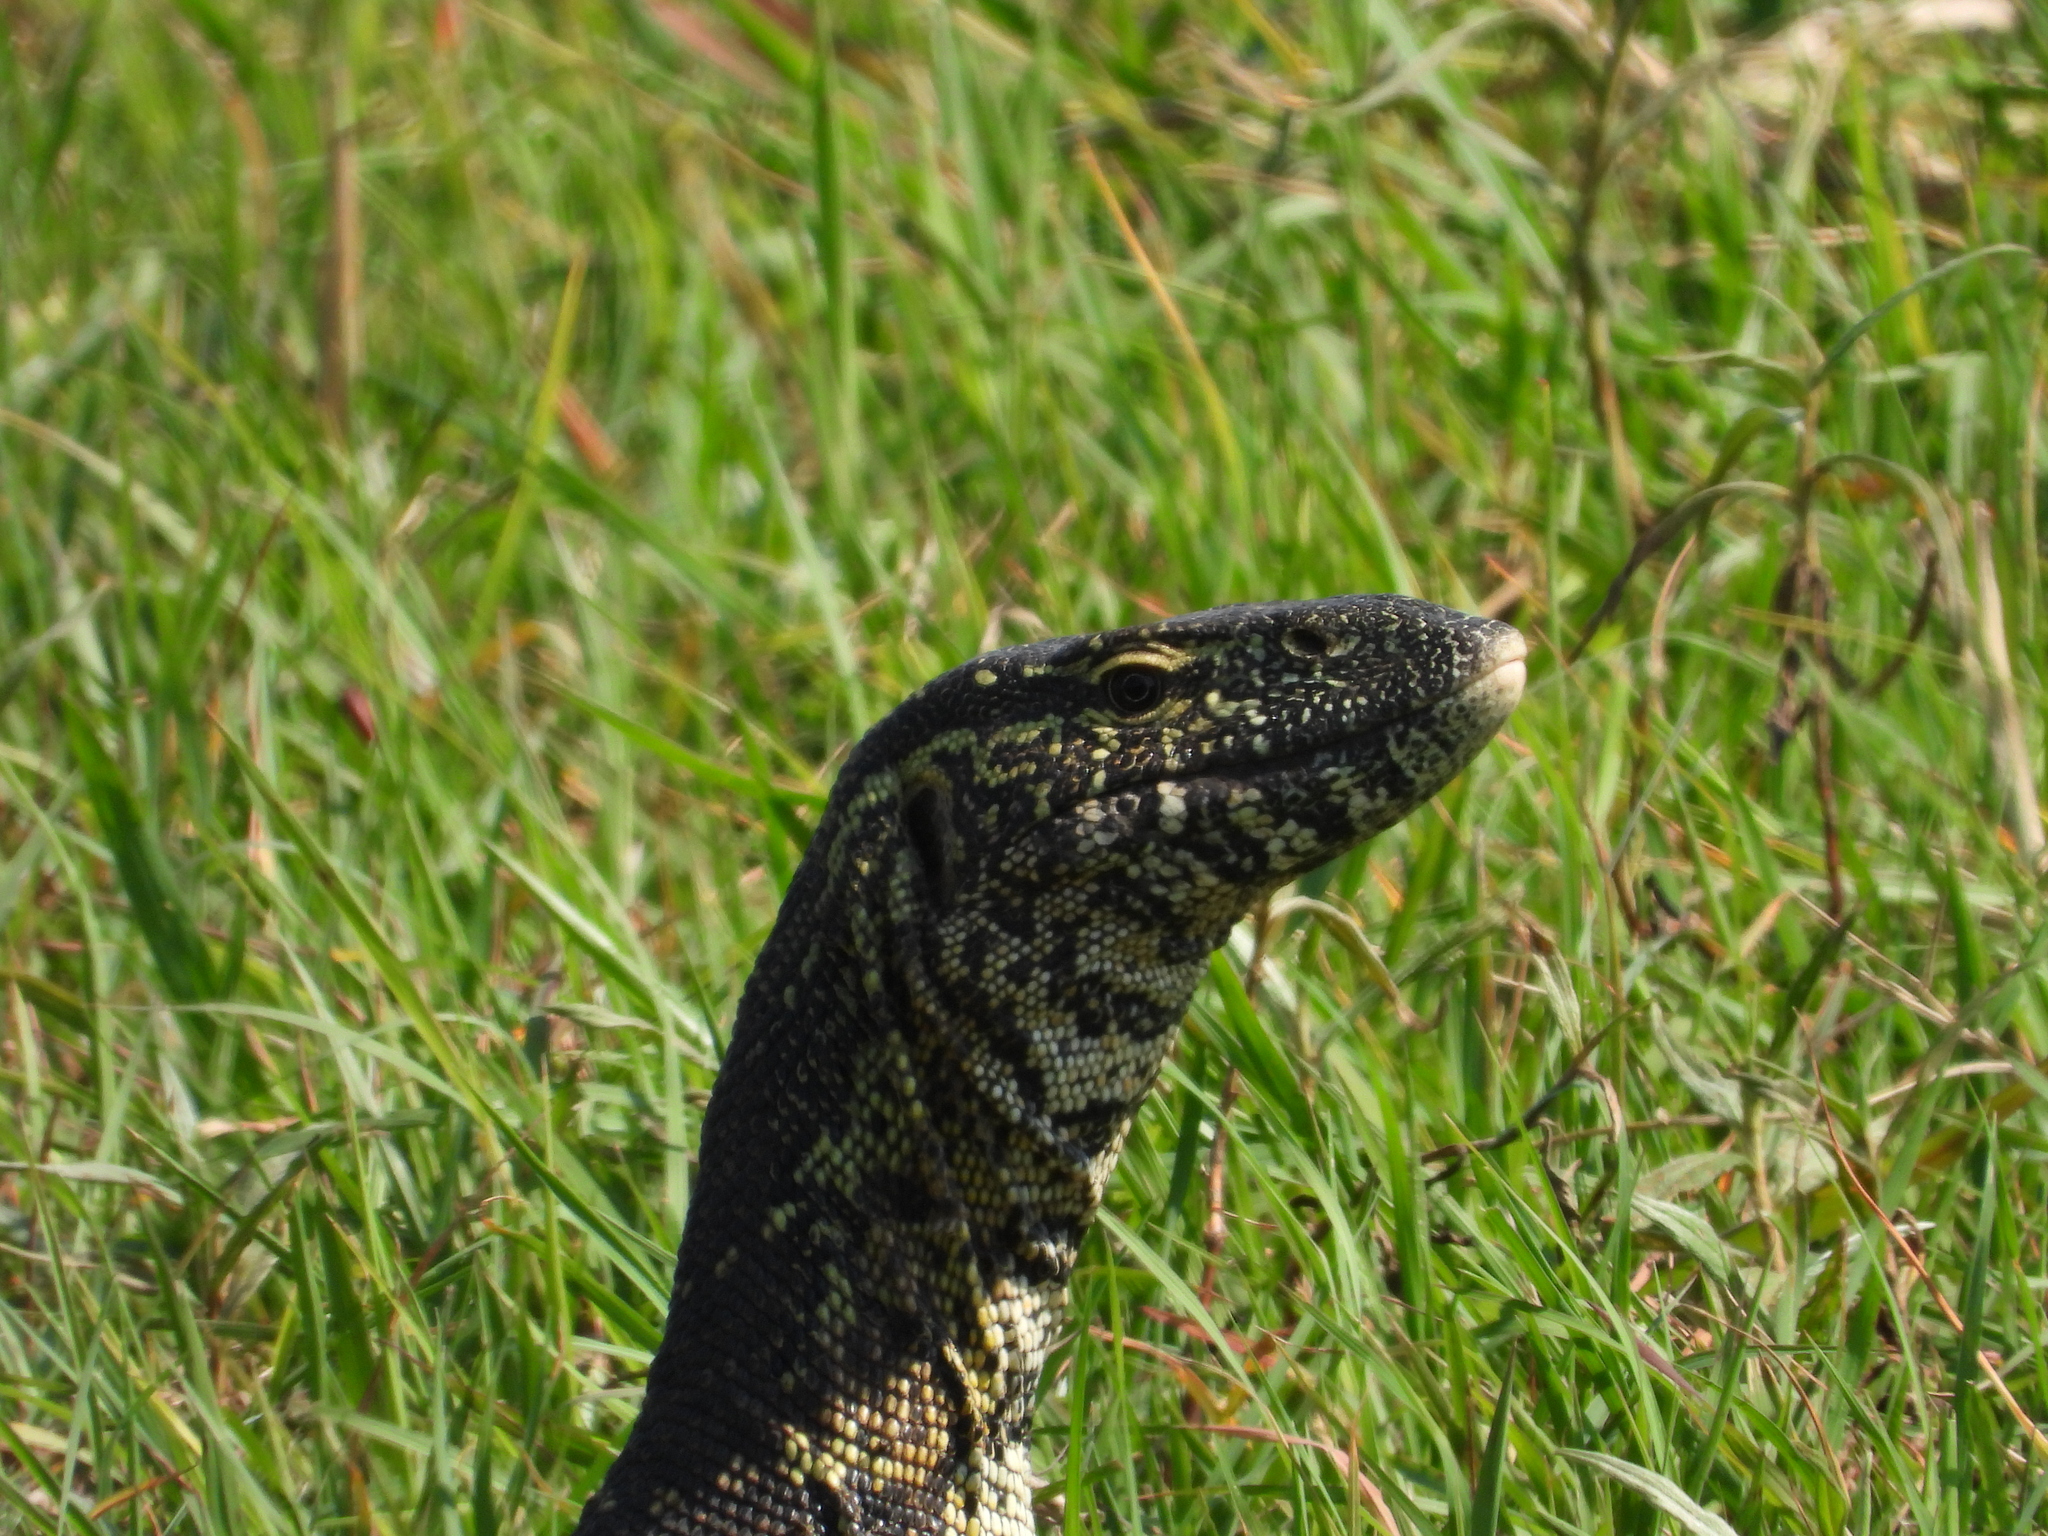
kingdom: Animalia
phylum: Chordata
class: Squamata
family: Varanidae
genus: Varanus
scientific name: Varanus niloticus
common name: Nile monitor
